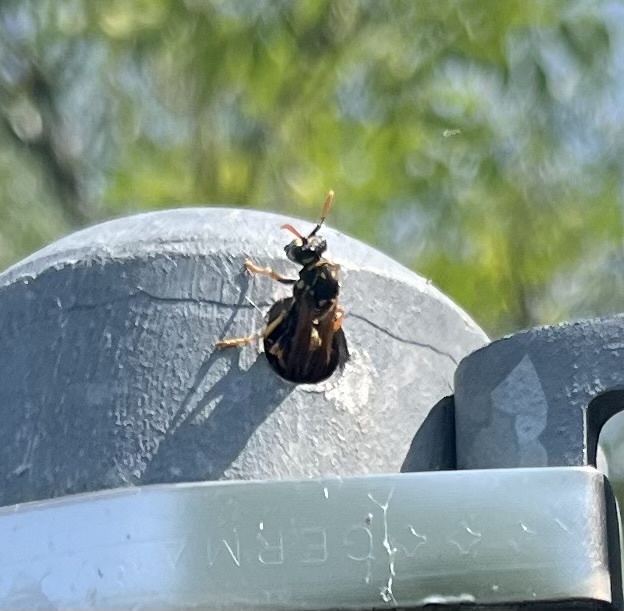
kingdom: Animalia
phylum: Arthropoda
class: Insecta
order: Hymenoptera
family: Eumenidae
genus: Polistes
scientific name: Polistes dominula
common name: Paper wasp
